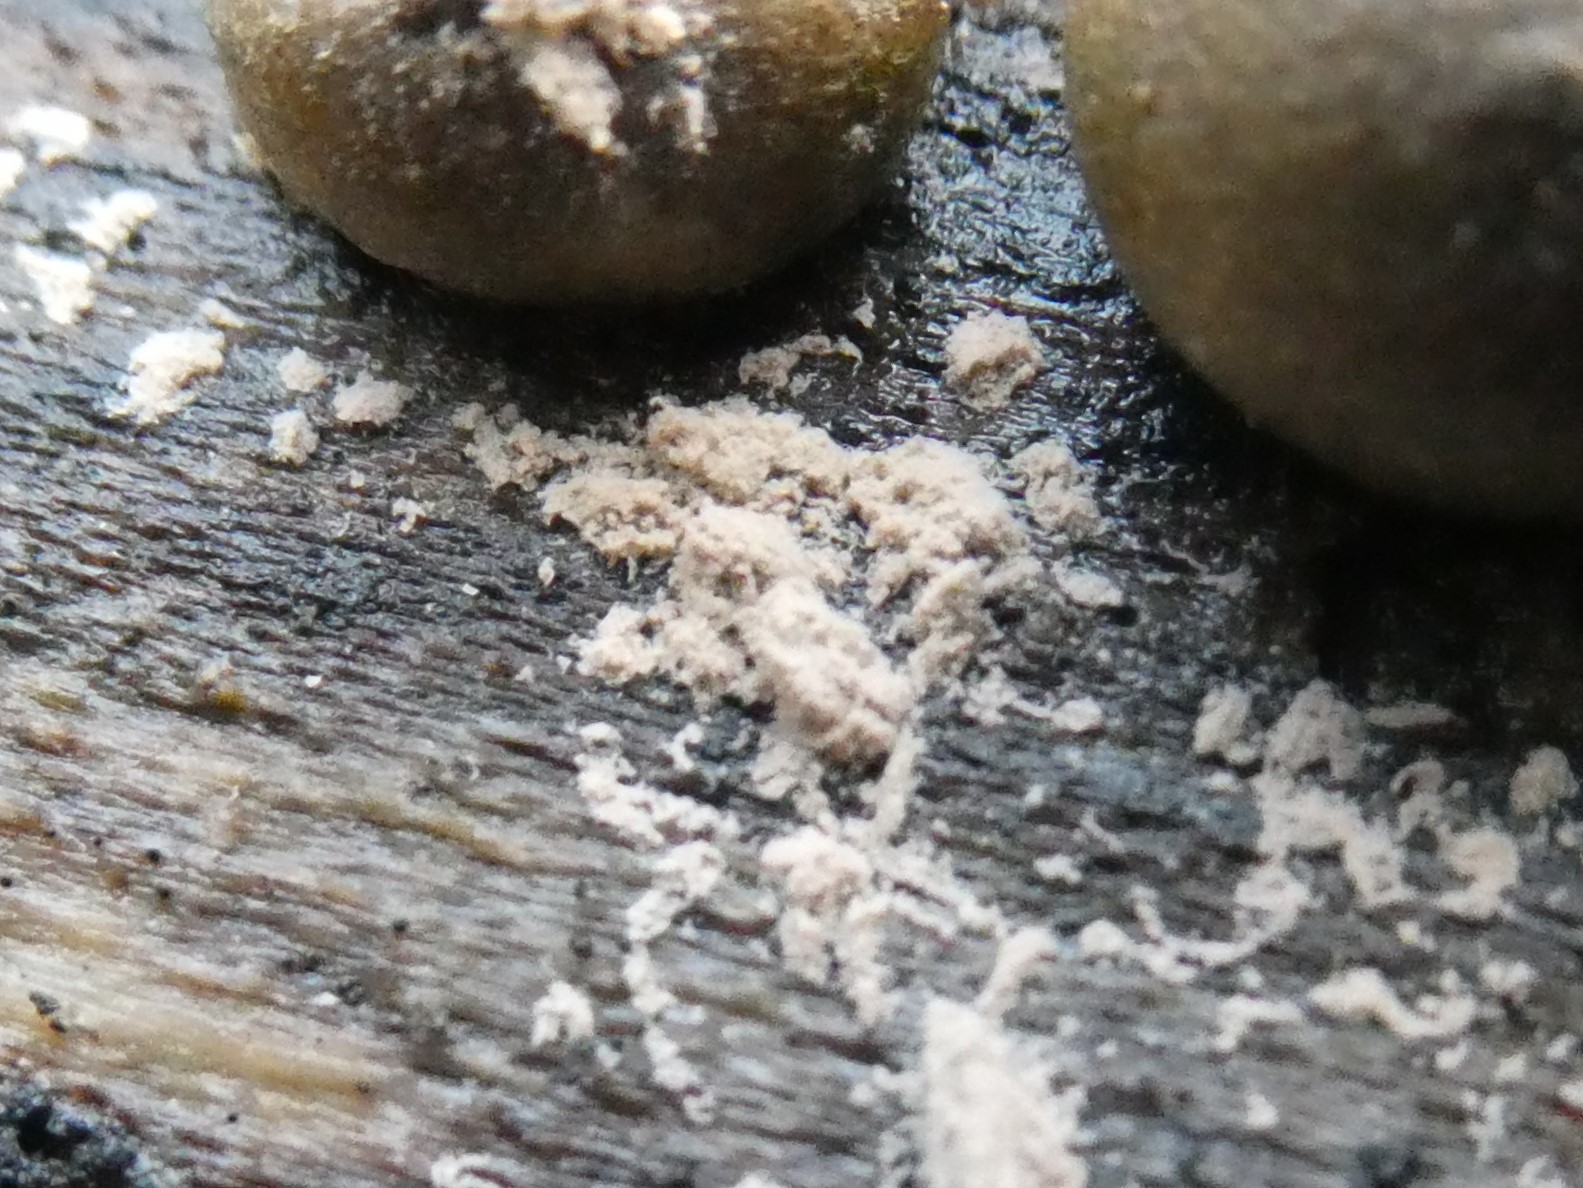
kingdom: Protozoa
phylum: Mycetozoa
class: Myxomycetes
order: Cribrariales
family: Tubiferaceae
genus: Lycogala
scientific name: Lycogala epidendrum
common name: Wolf's milk
